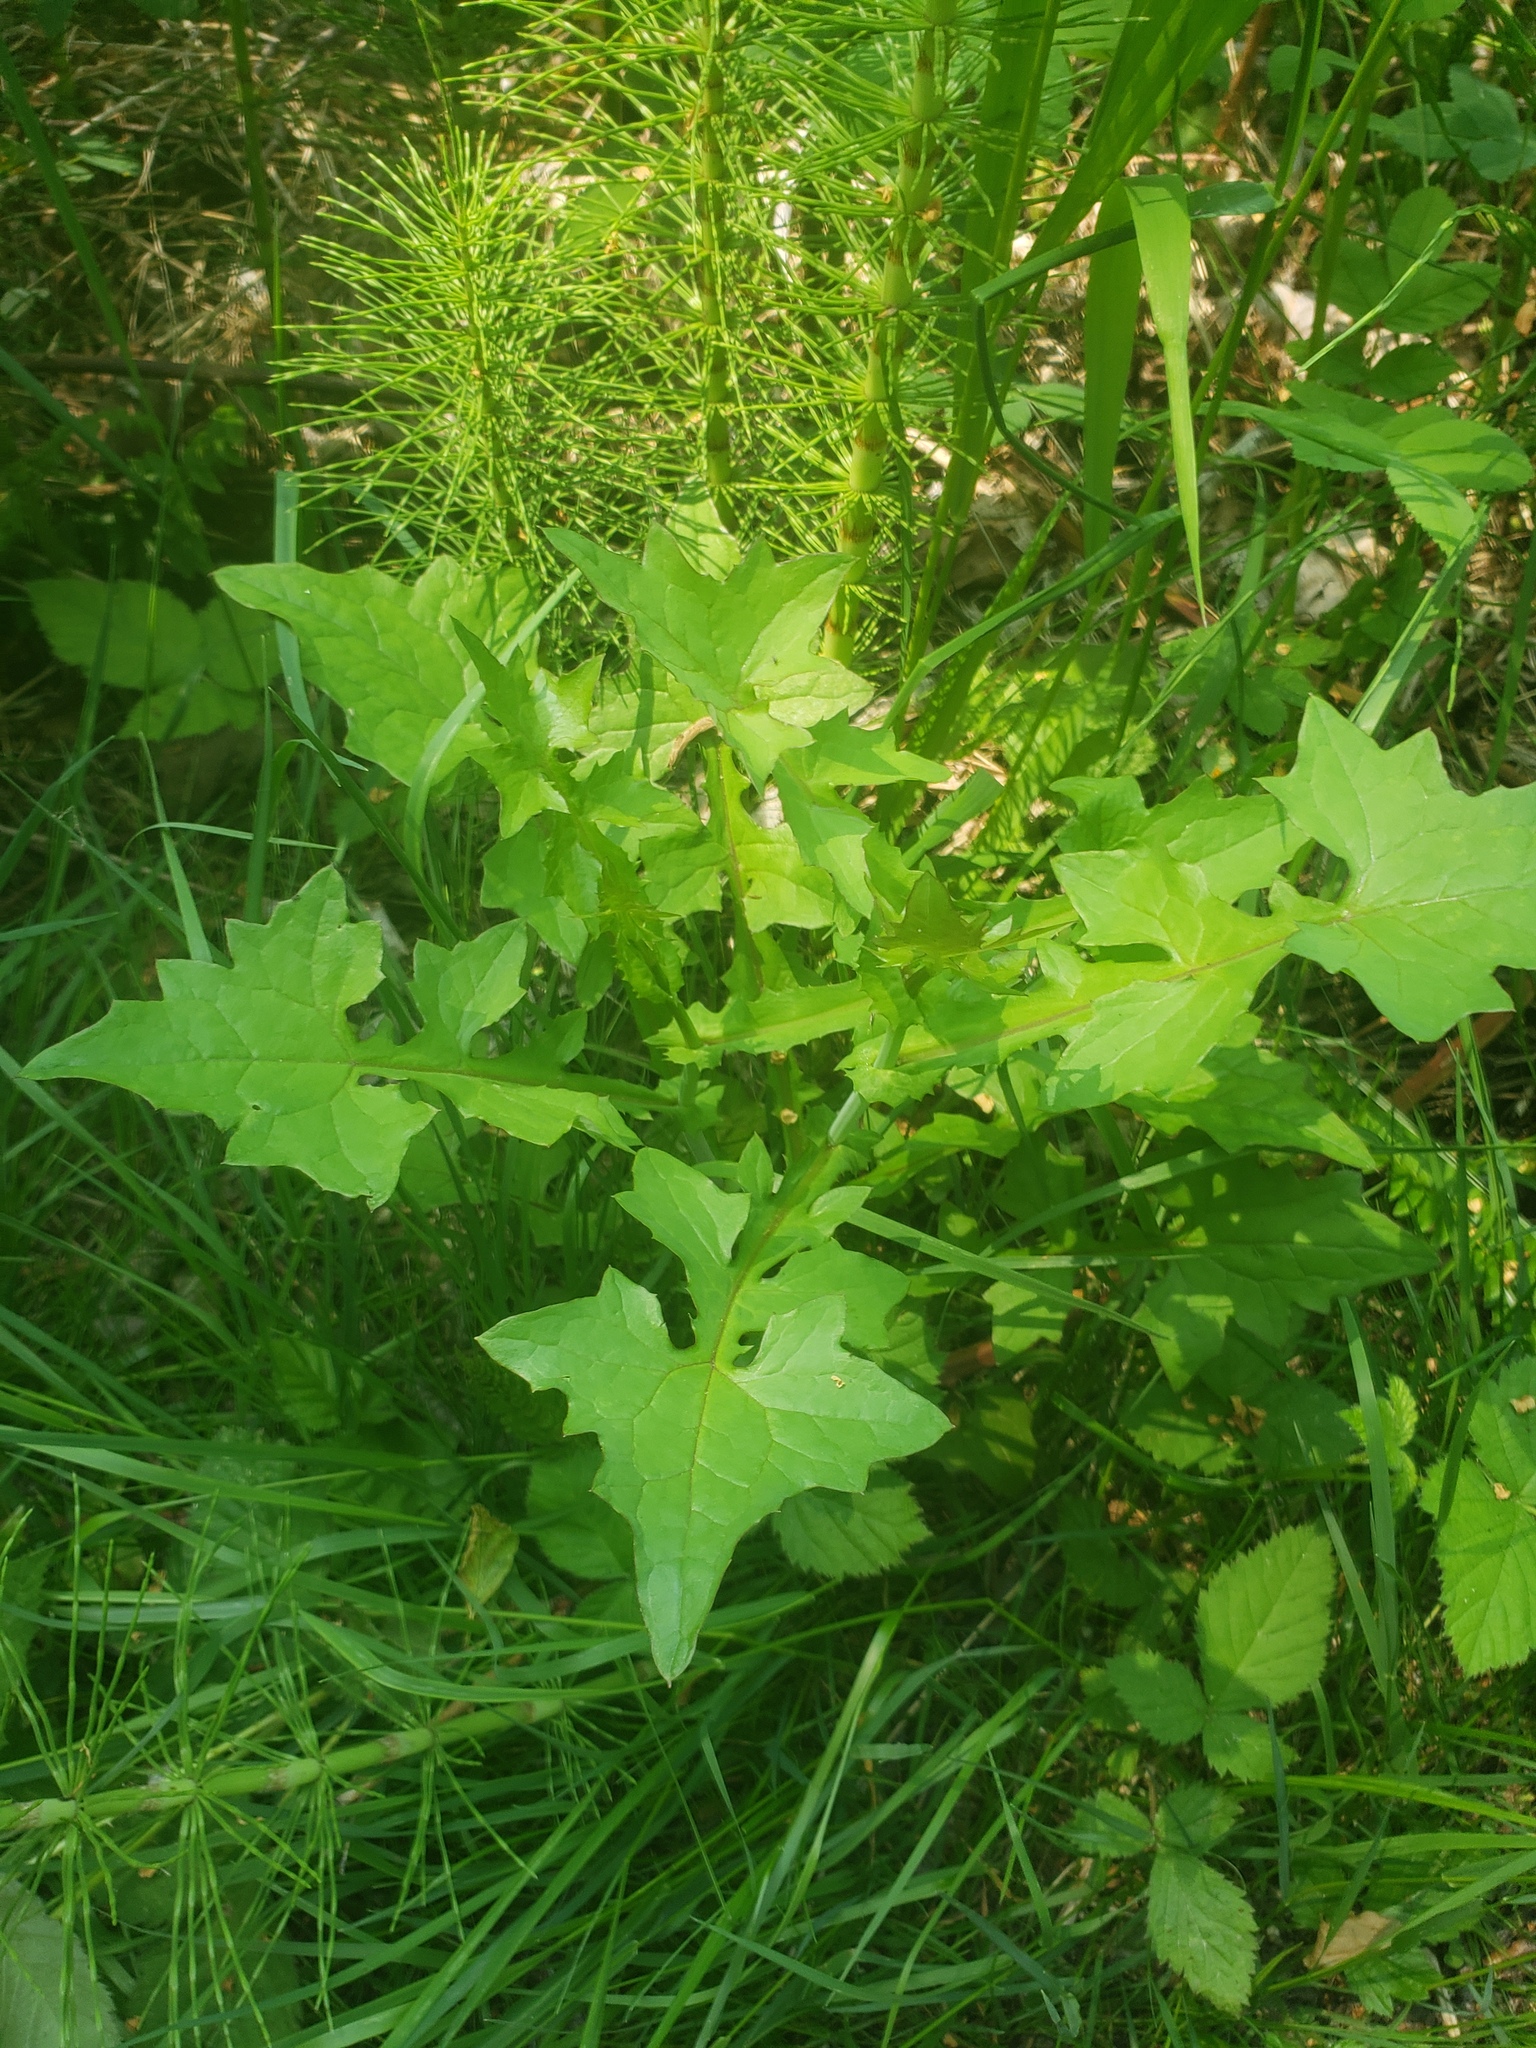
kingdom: Plantae
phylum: Tracheophyta
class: Magnoliopsida
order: Asterales
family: Asteraceae
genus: Mycelis
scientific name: Mycelis muralis
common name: Wall lettuce
